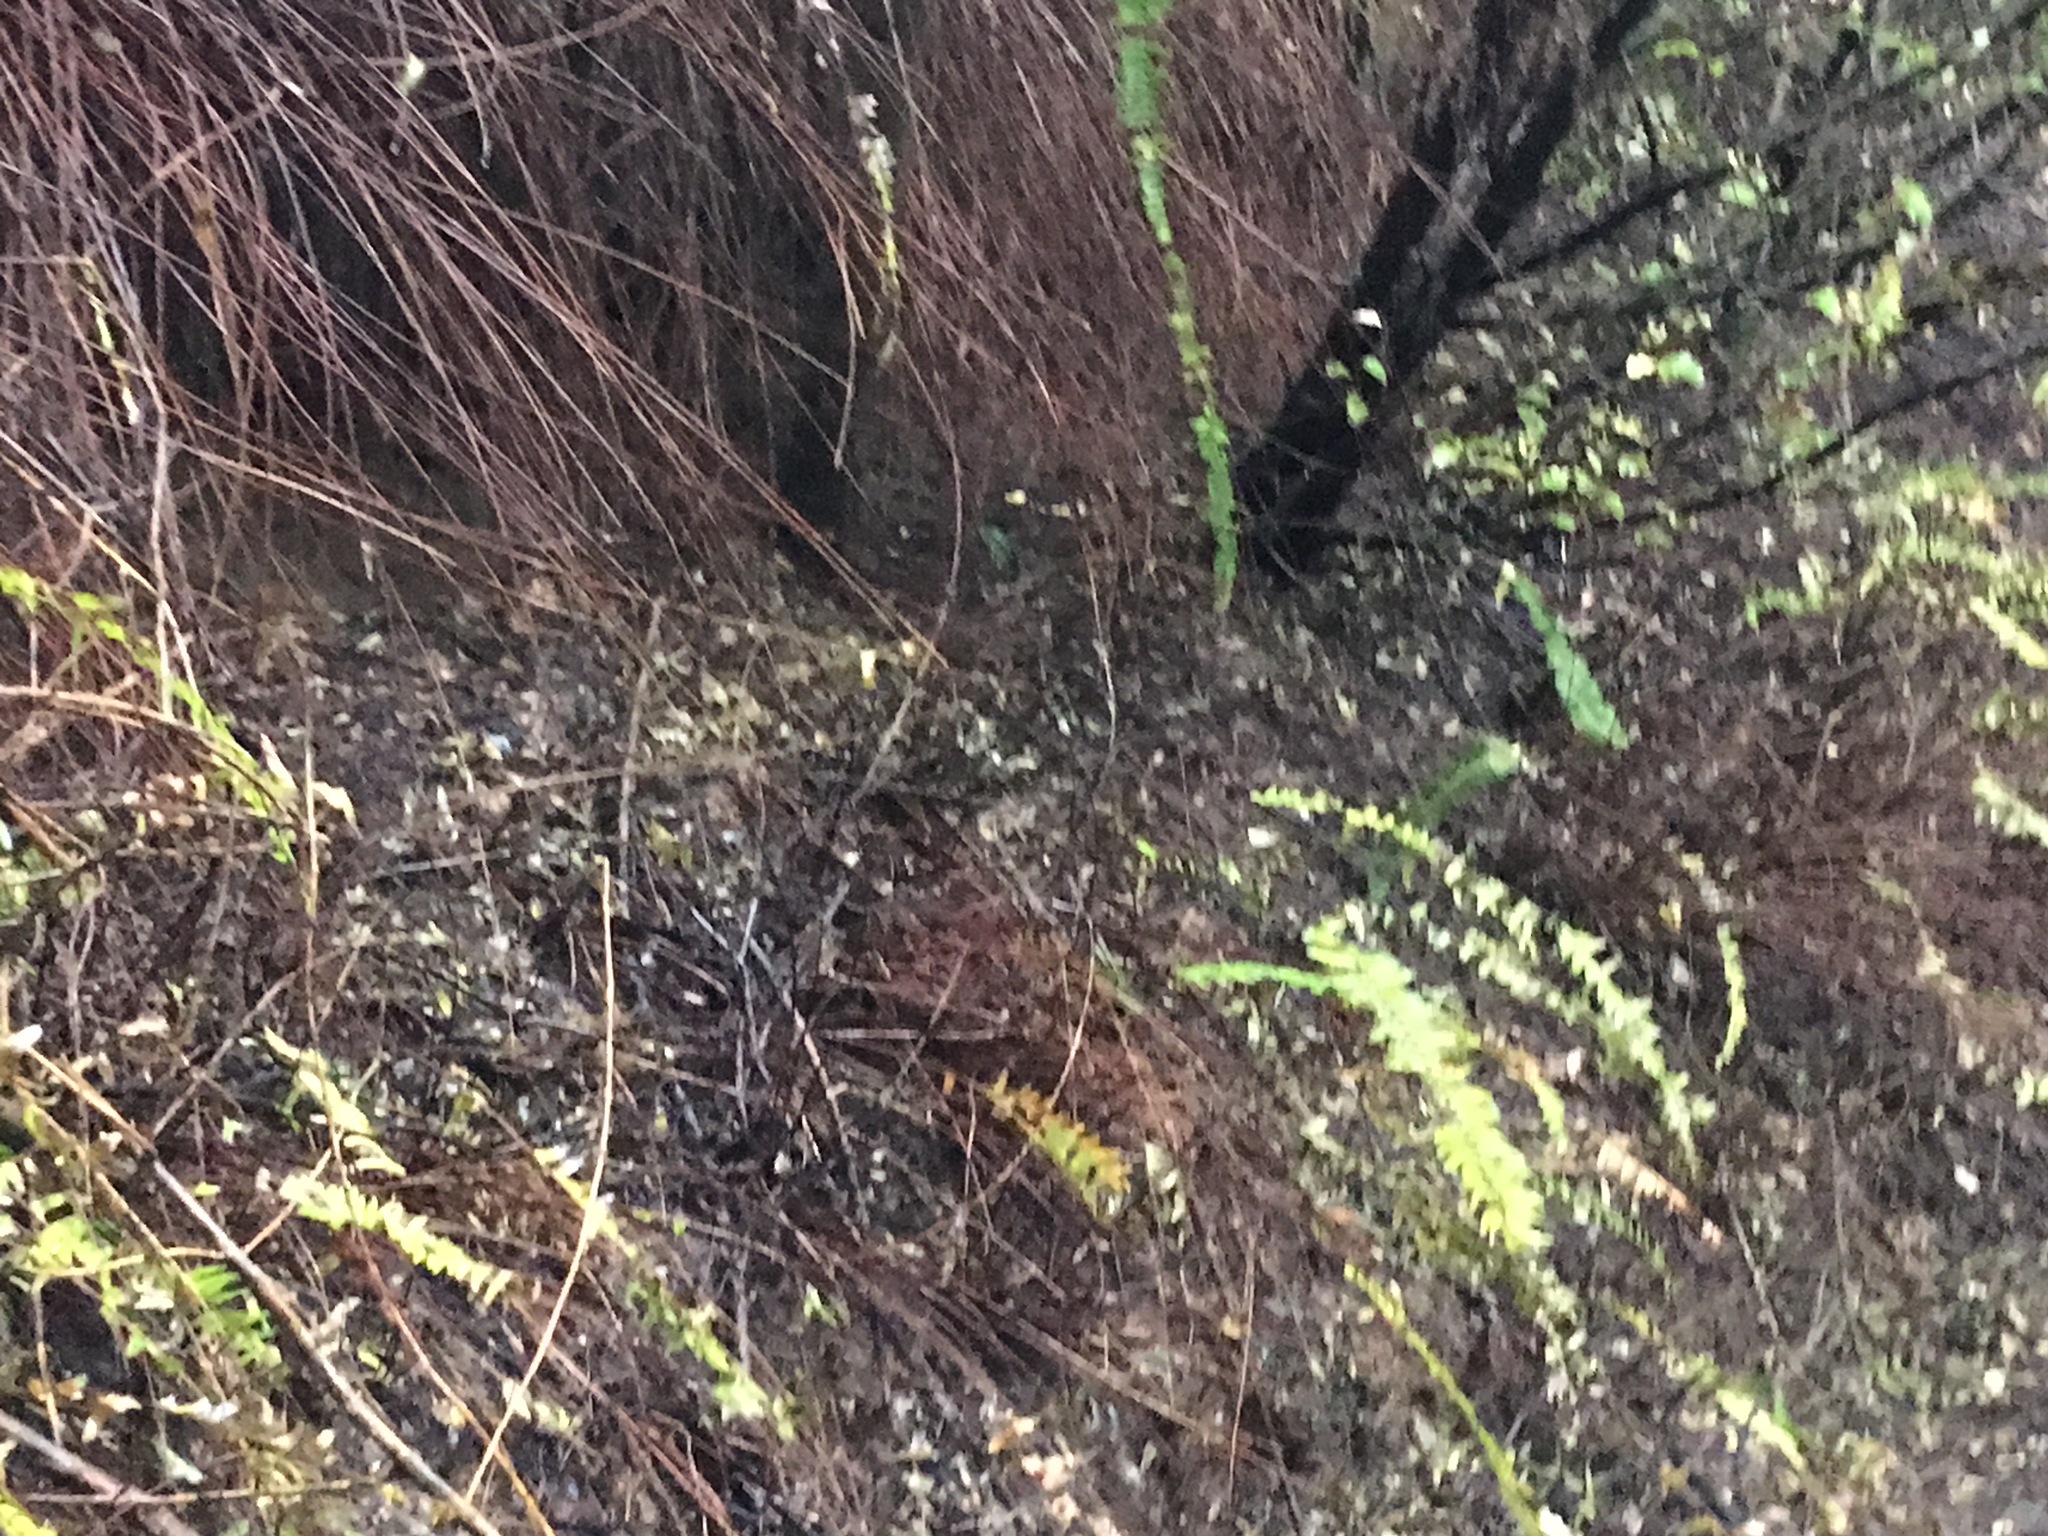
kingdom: Plantae
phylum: Tracheophyta
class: Polypodiopsida
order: Polypodiales
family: Nephrolepidaceae
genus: Nephrolepis
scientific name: Nephrolepis cordifolia
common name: Narrow swordfern
